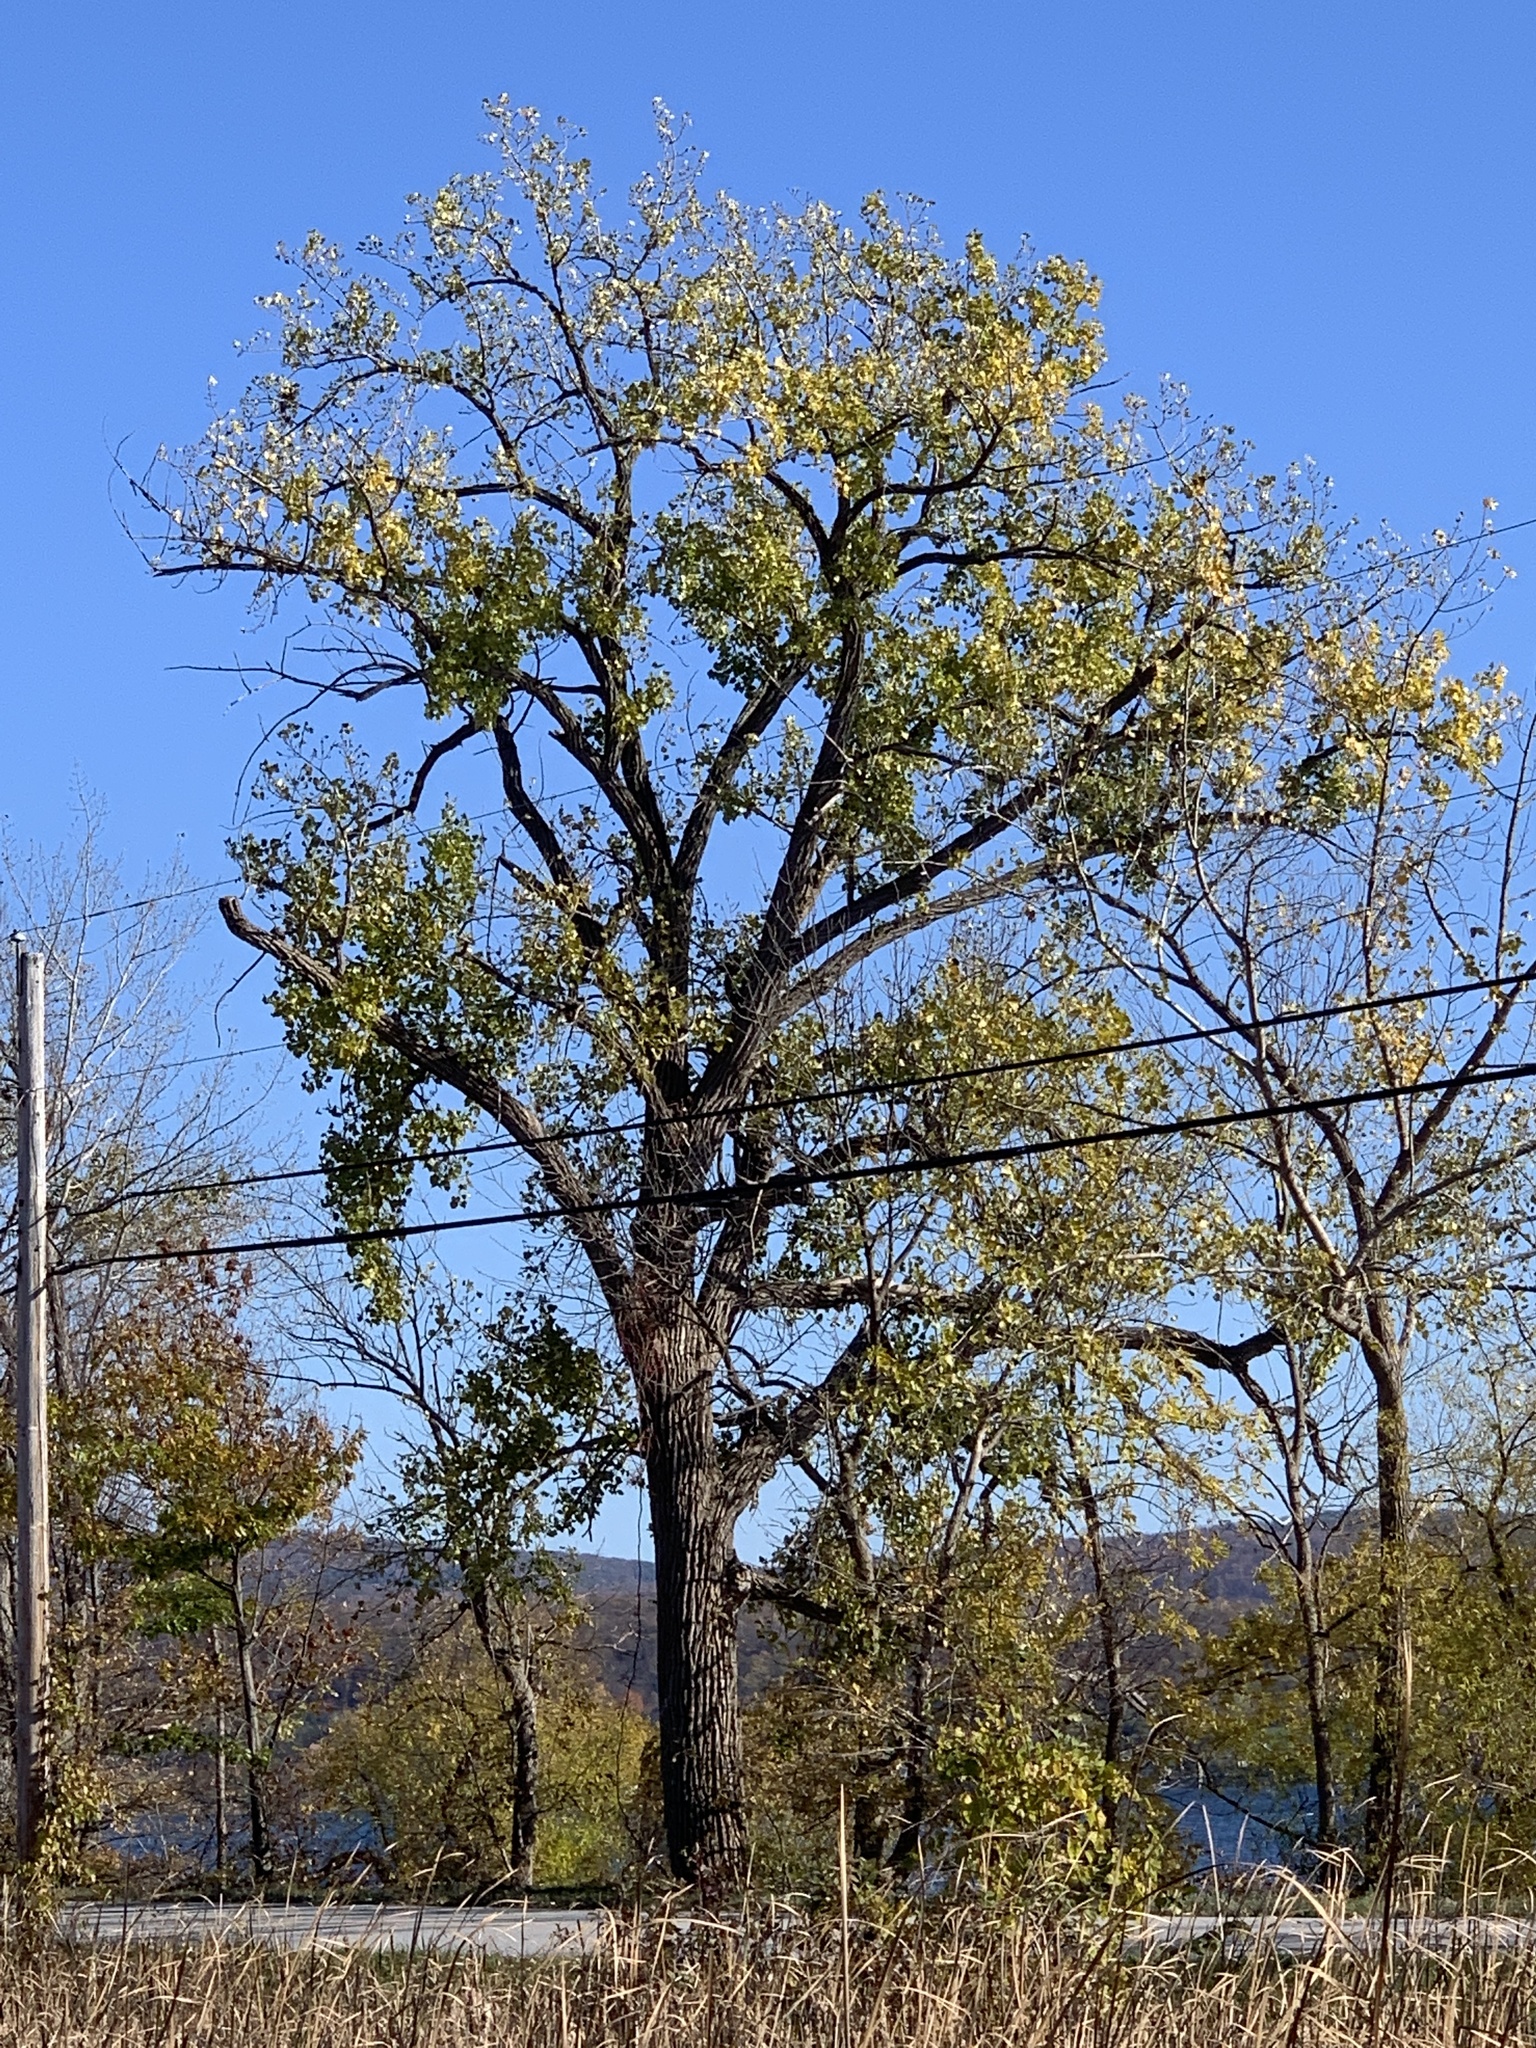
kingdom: Plantae
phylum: Tracheophyta
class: Magnoliopsida
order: Malpighiales
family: Salicaceae
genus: Populus
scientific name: Populus deltoides
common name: Eastern cottonwood
